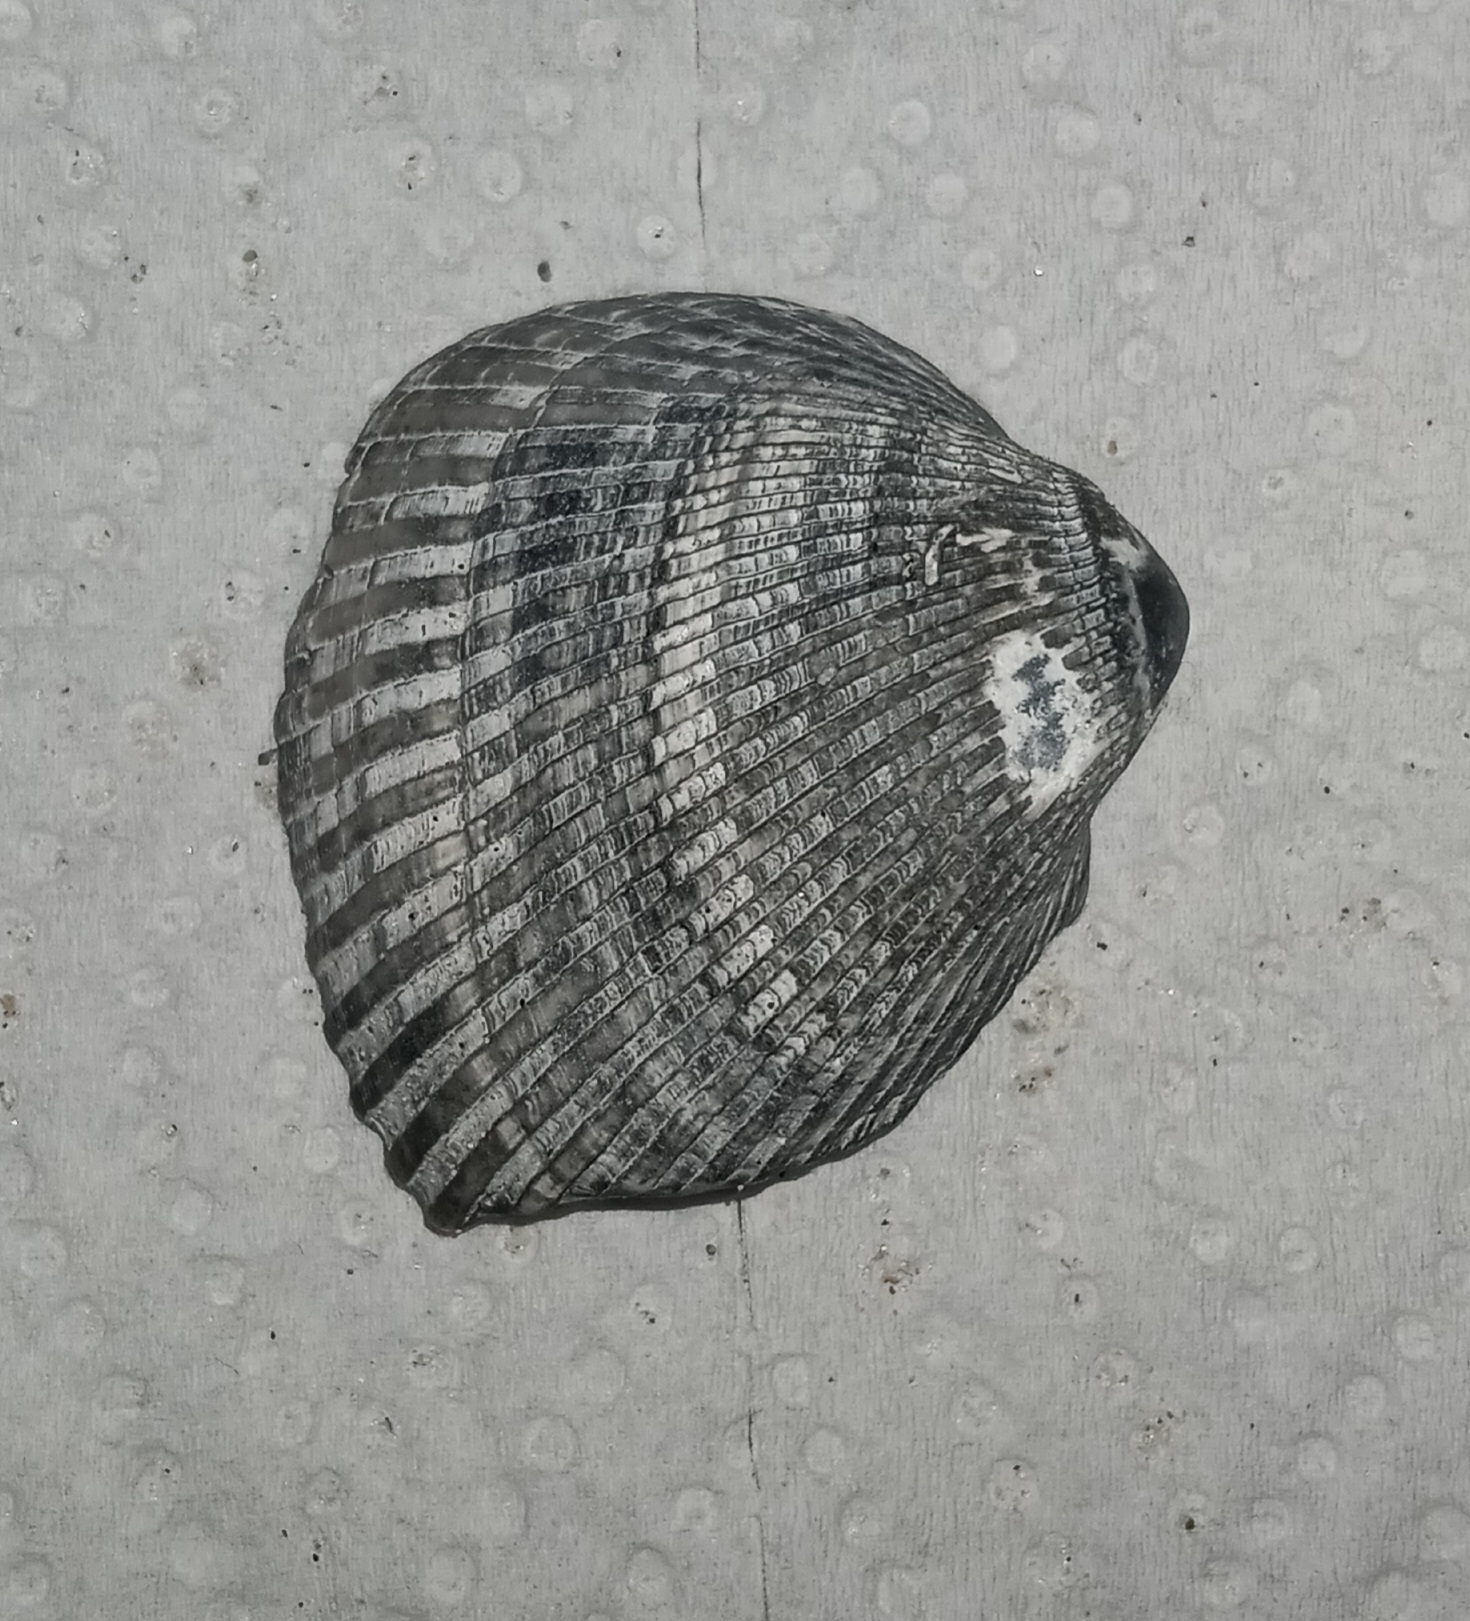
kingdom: Animalia
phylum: Mollusca
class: Bivalvia
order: Arcida
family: Noetiidae
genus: Noetia
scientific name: Noetia ponderosa
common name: Ponderous ark
